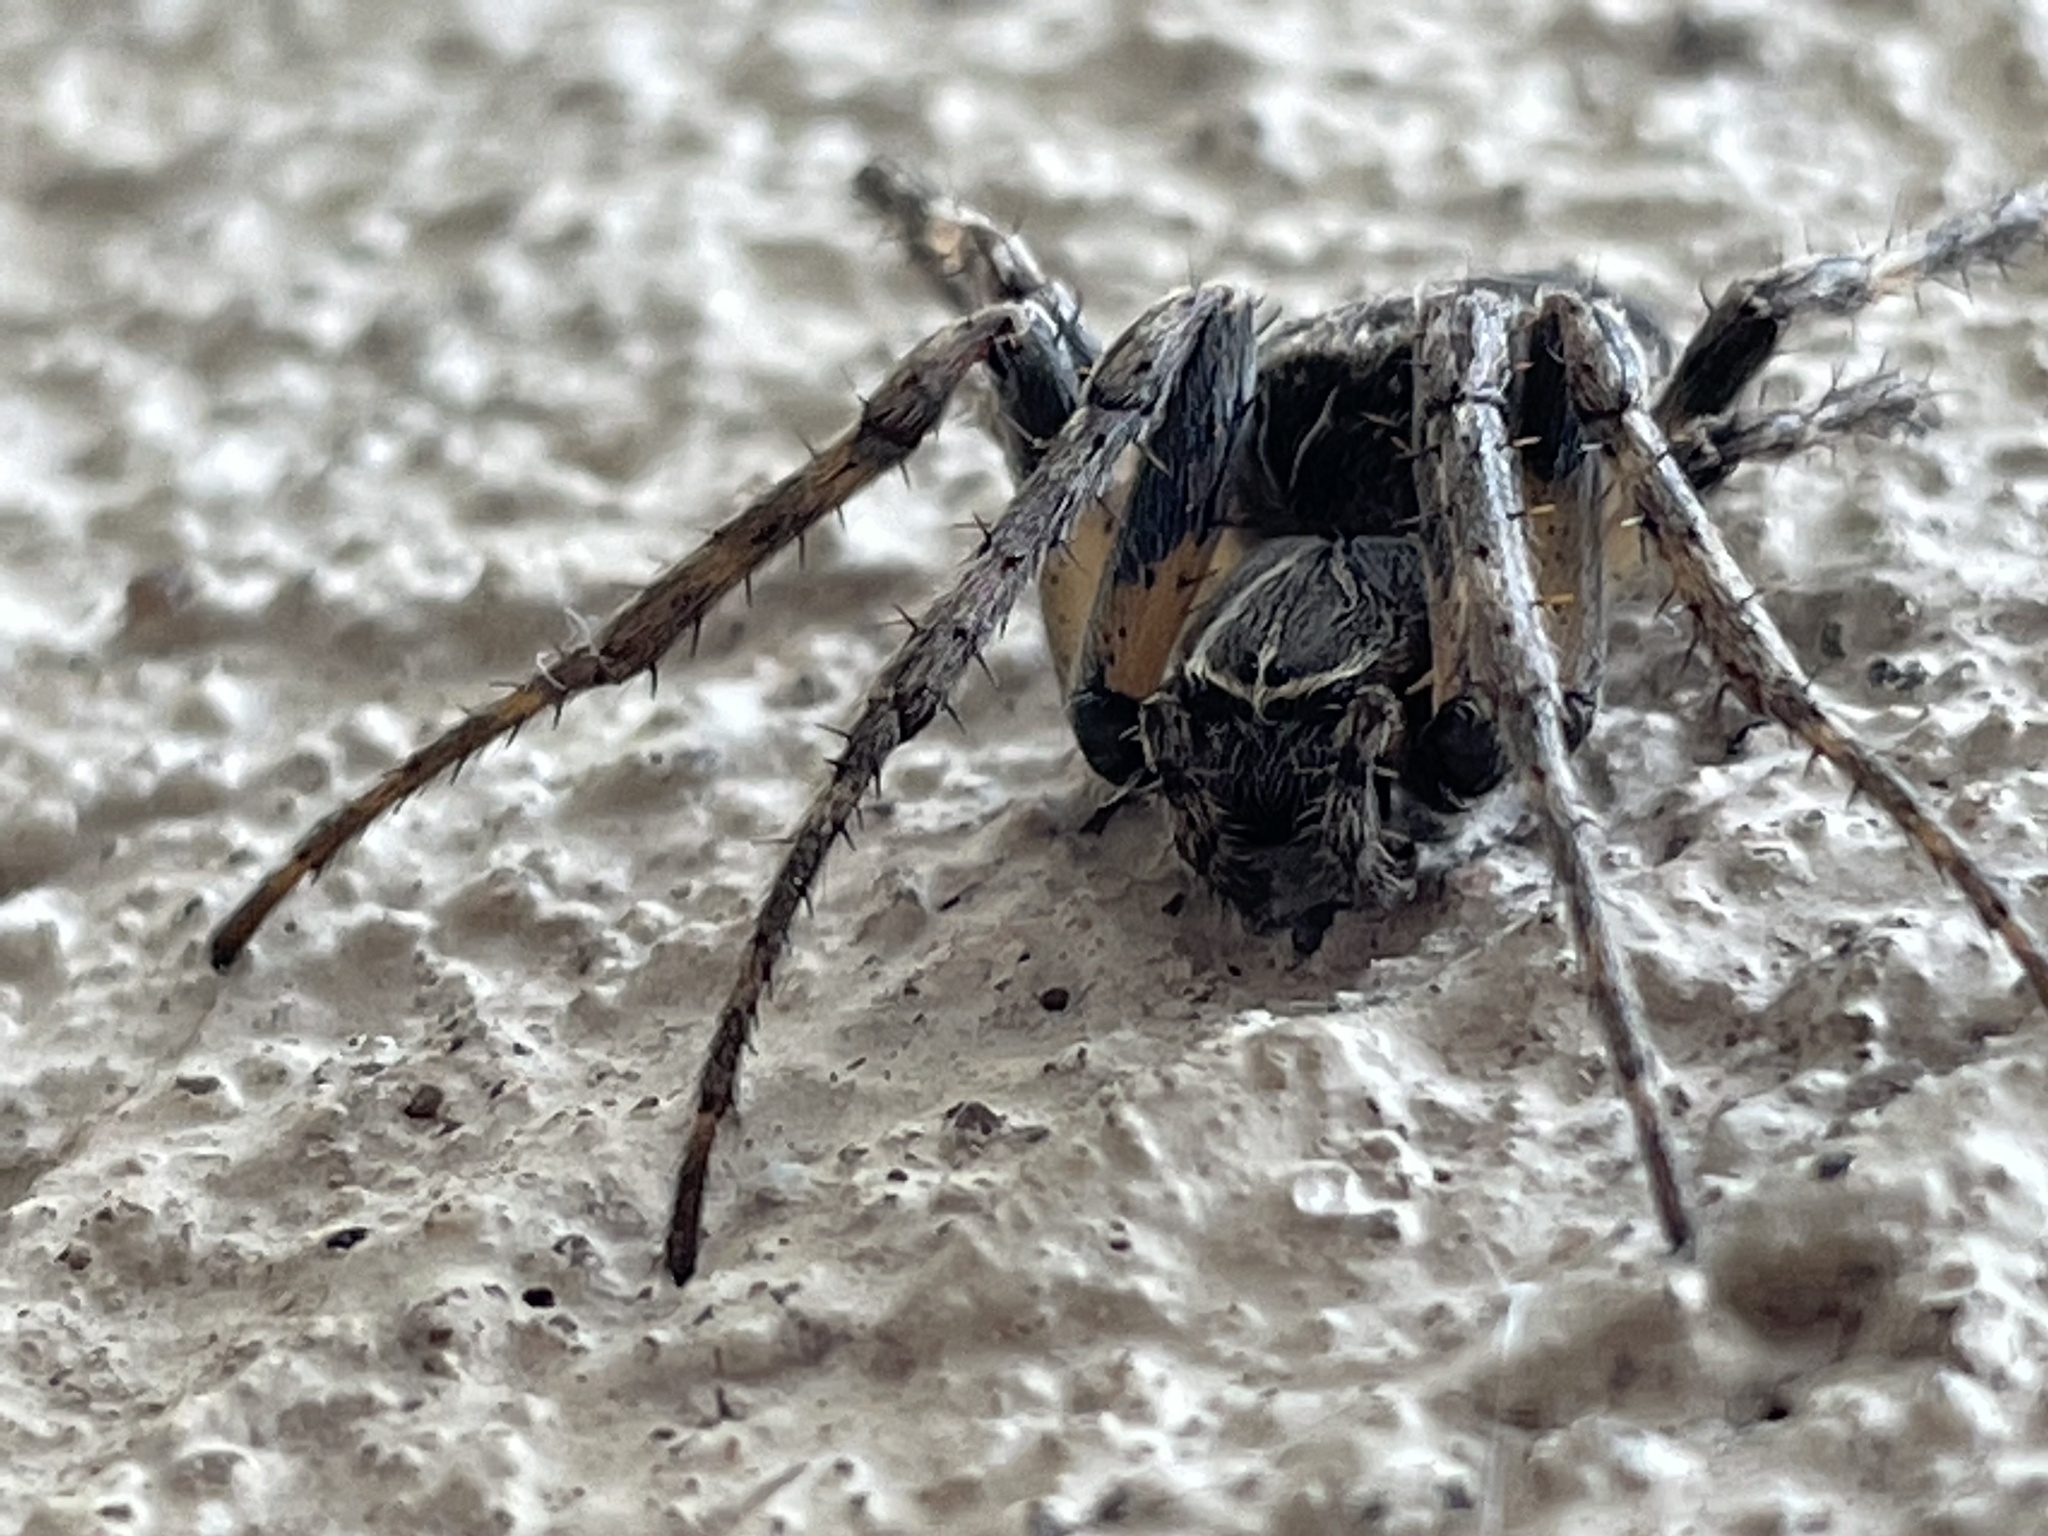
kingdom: Animalia
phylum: Arthropoda
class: Arachnida
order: Araneae
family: Araneidae
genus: Larinioides
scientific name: Larinioides sclopetarius
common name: Bridge orbweaver
